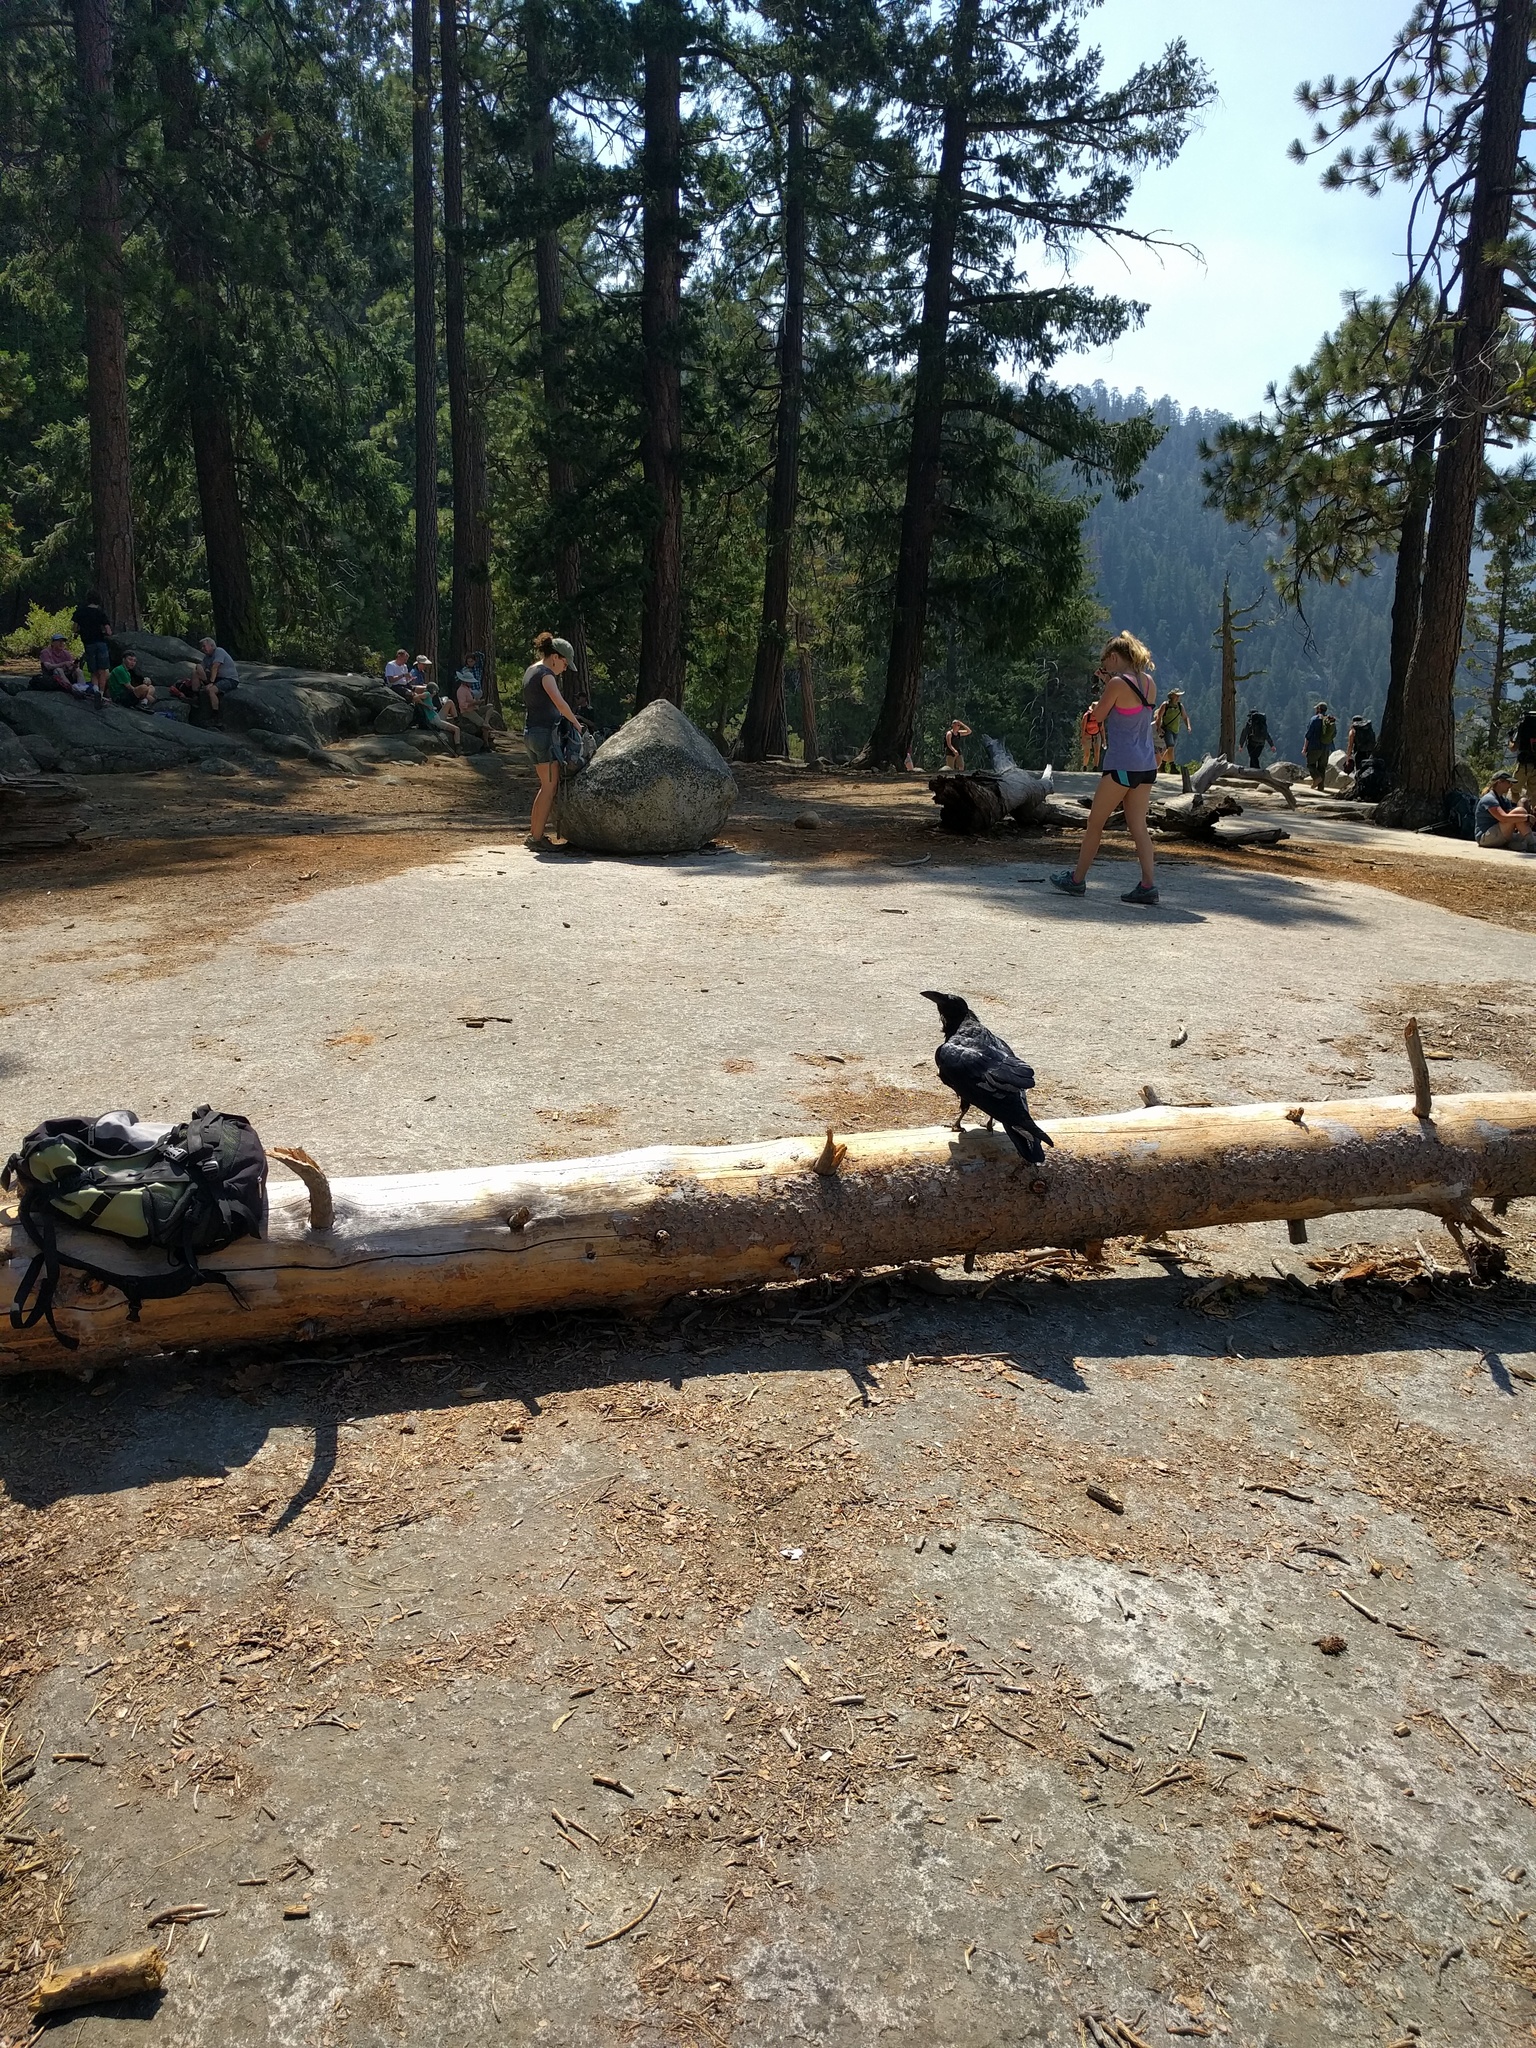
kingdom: Animalia
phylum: Chordata
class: Aves
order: Passeriformes
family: Corvidae
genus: Corvus
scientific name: Corvus corax
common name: Common raven
